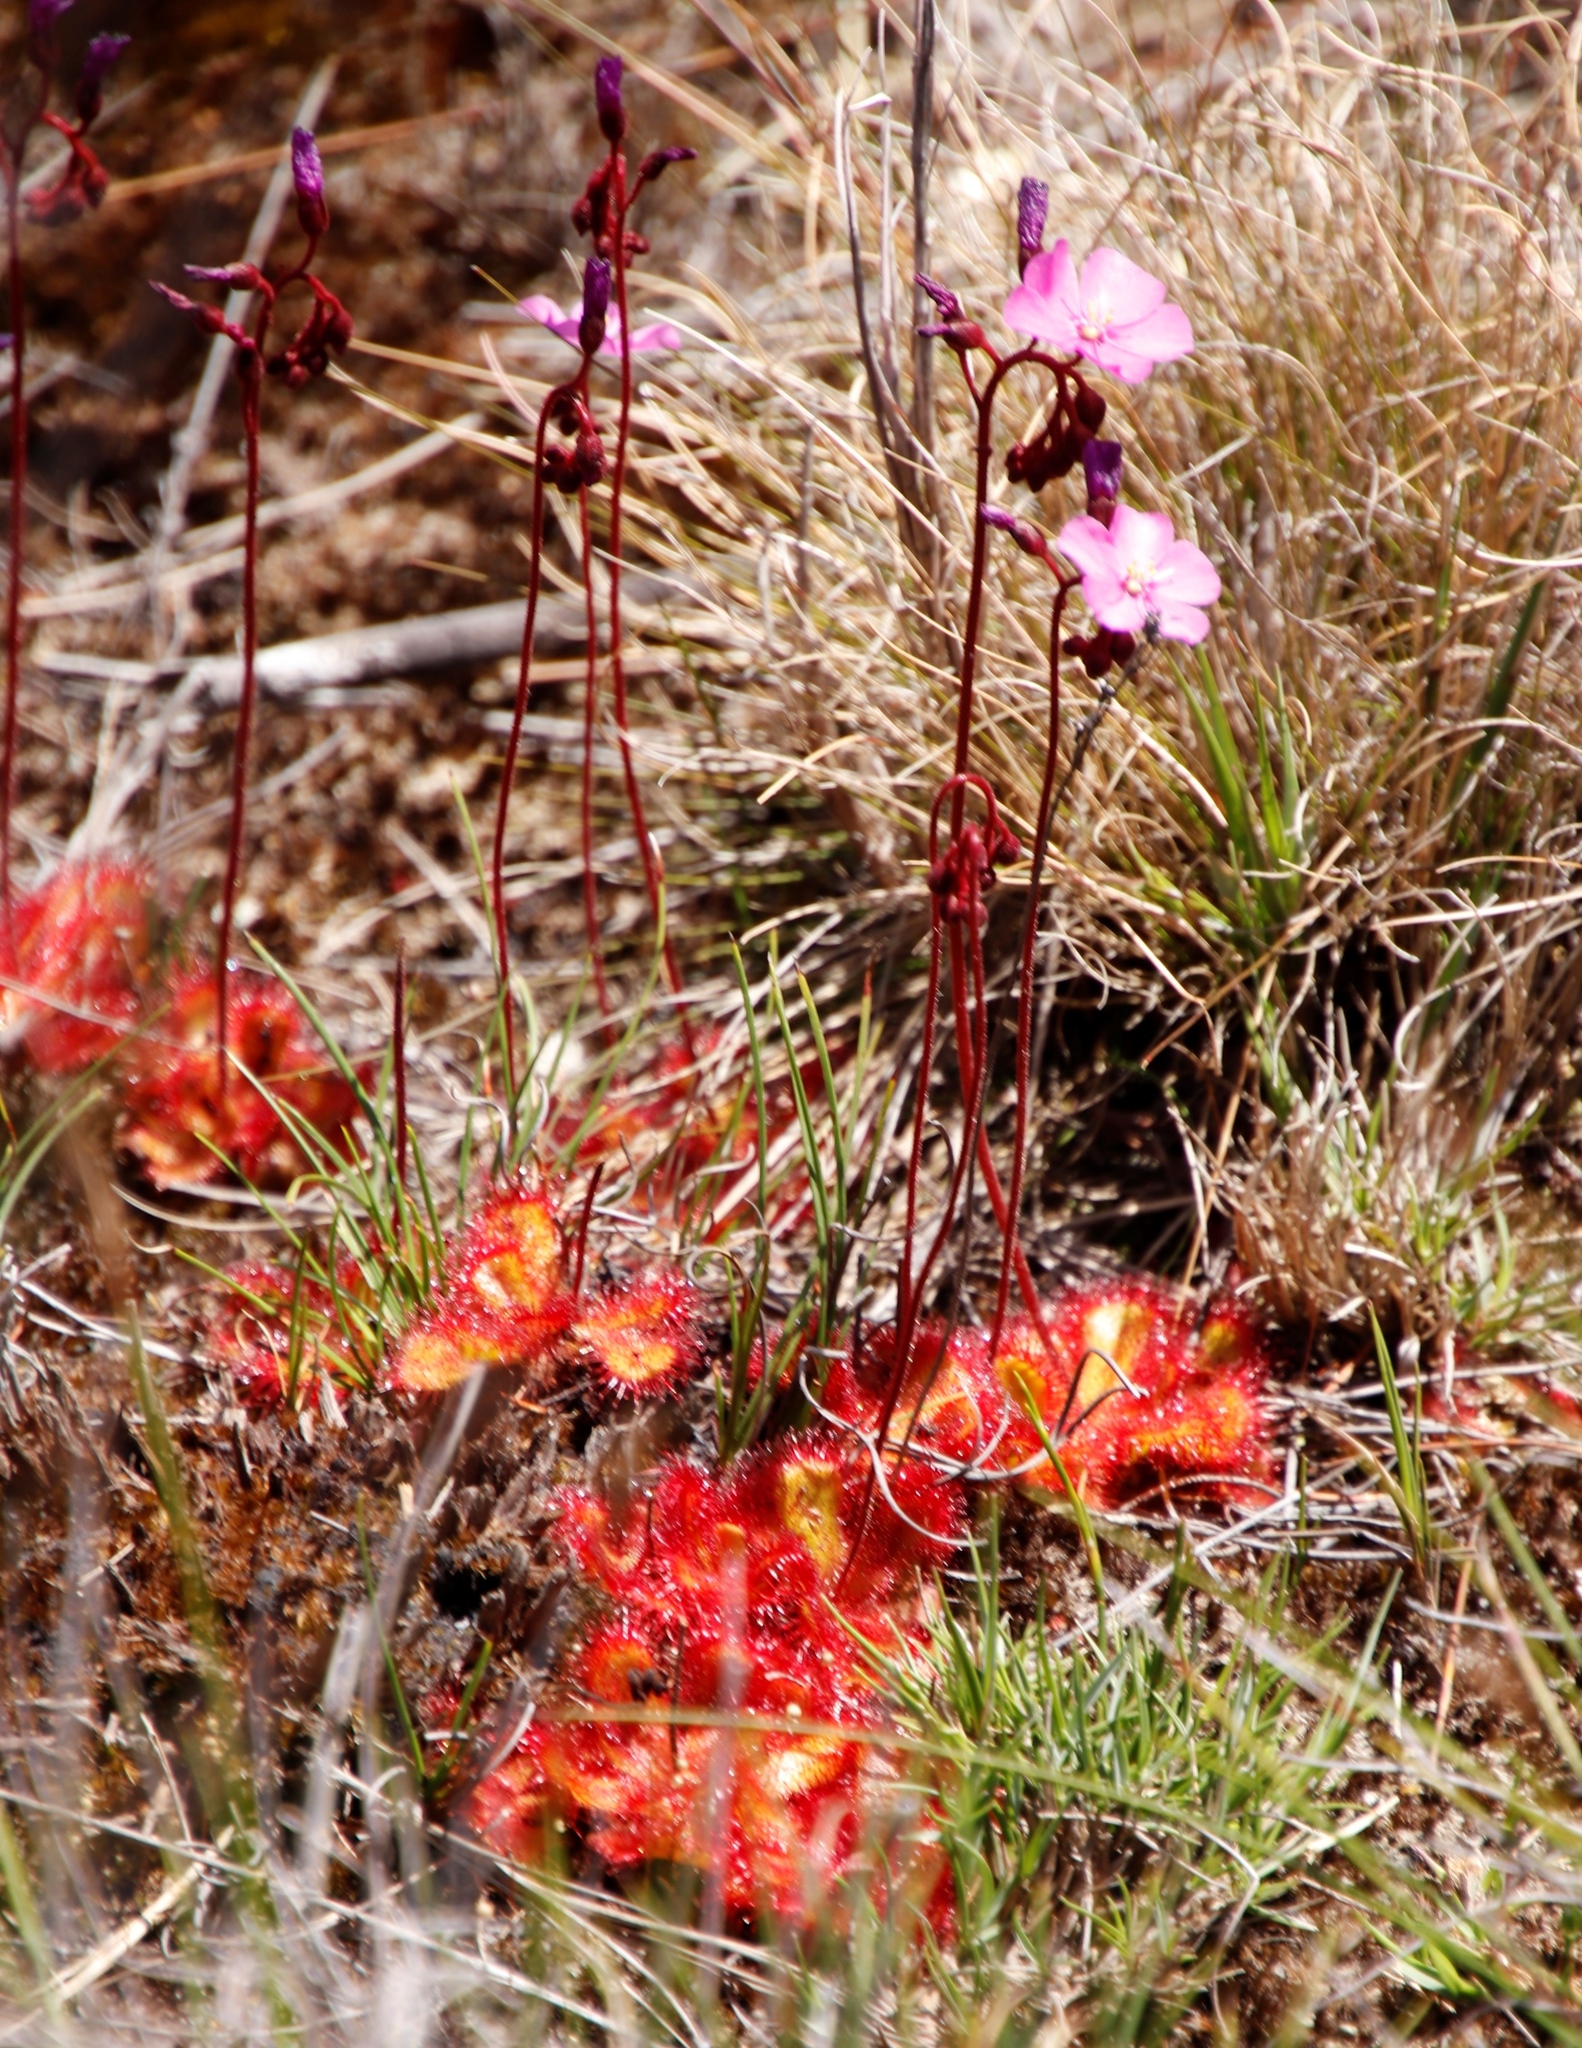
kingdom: Plantae
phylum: Tracheophyta
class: Magnoliopsida
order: Caryophyllales
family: Droseraceae
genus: Drosera
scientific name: Drosera cuneifolia
